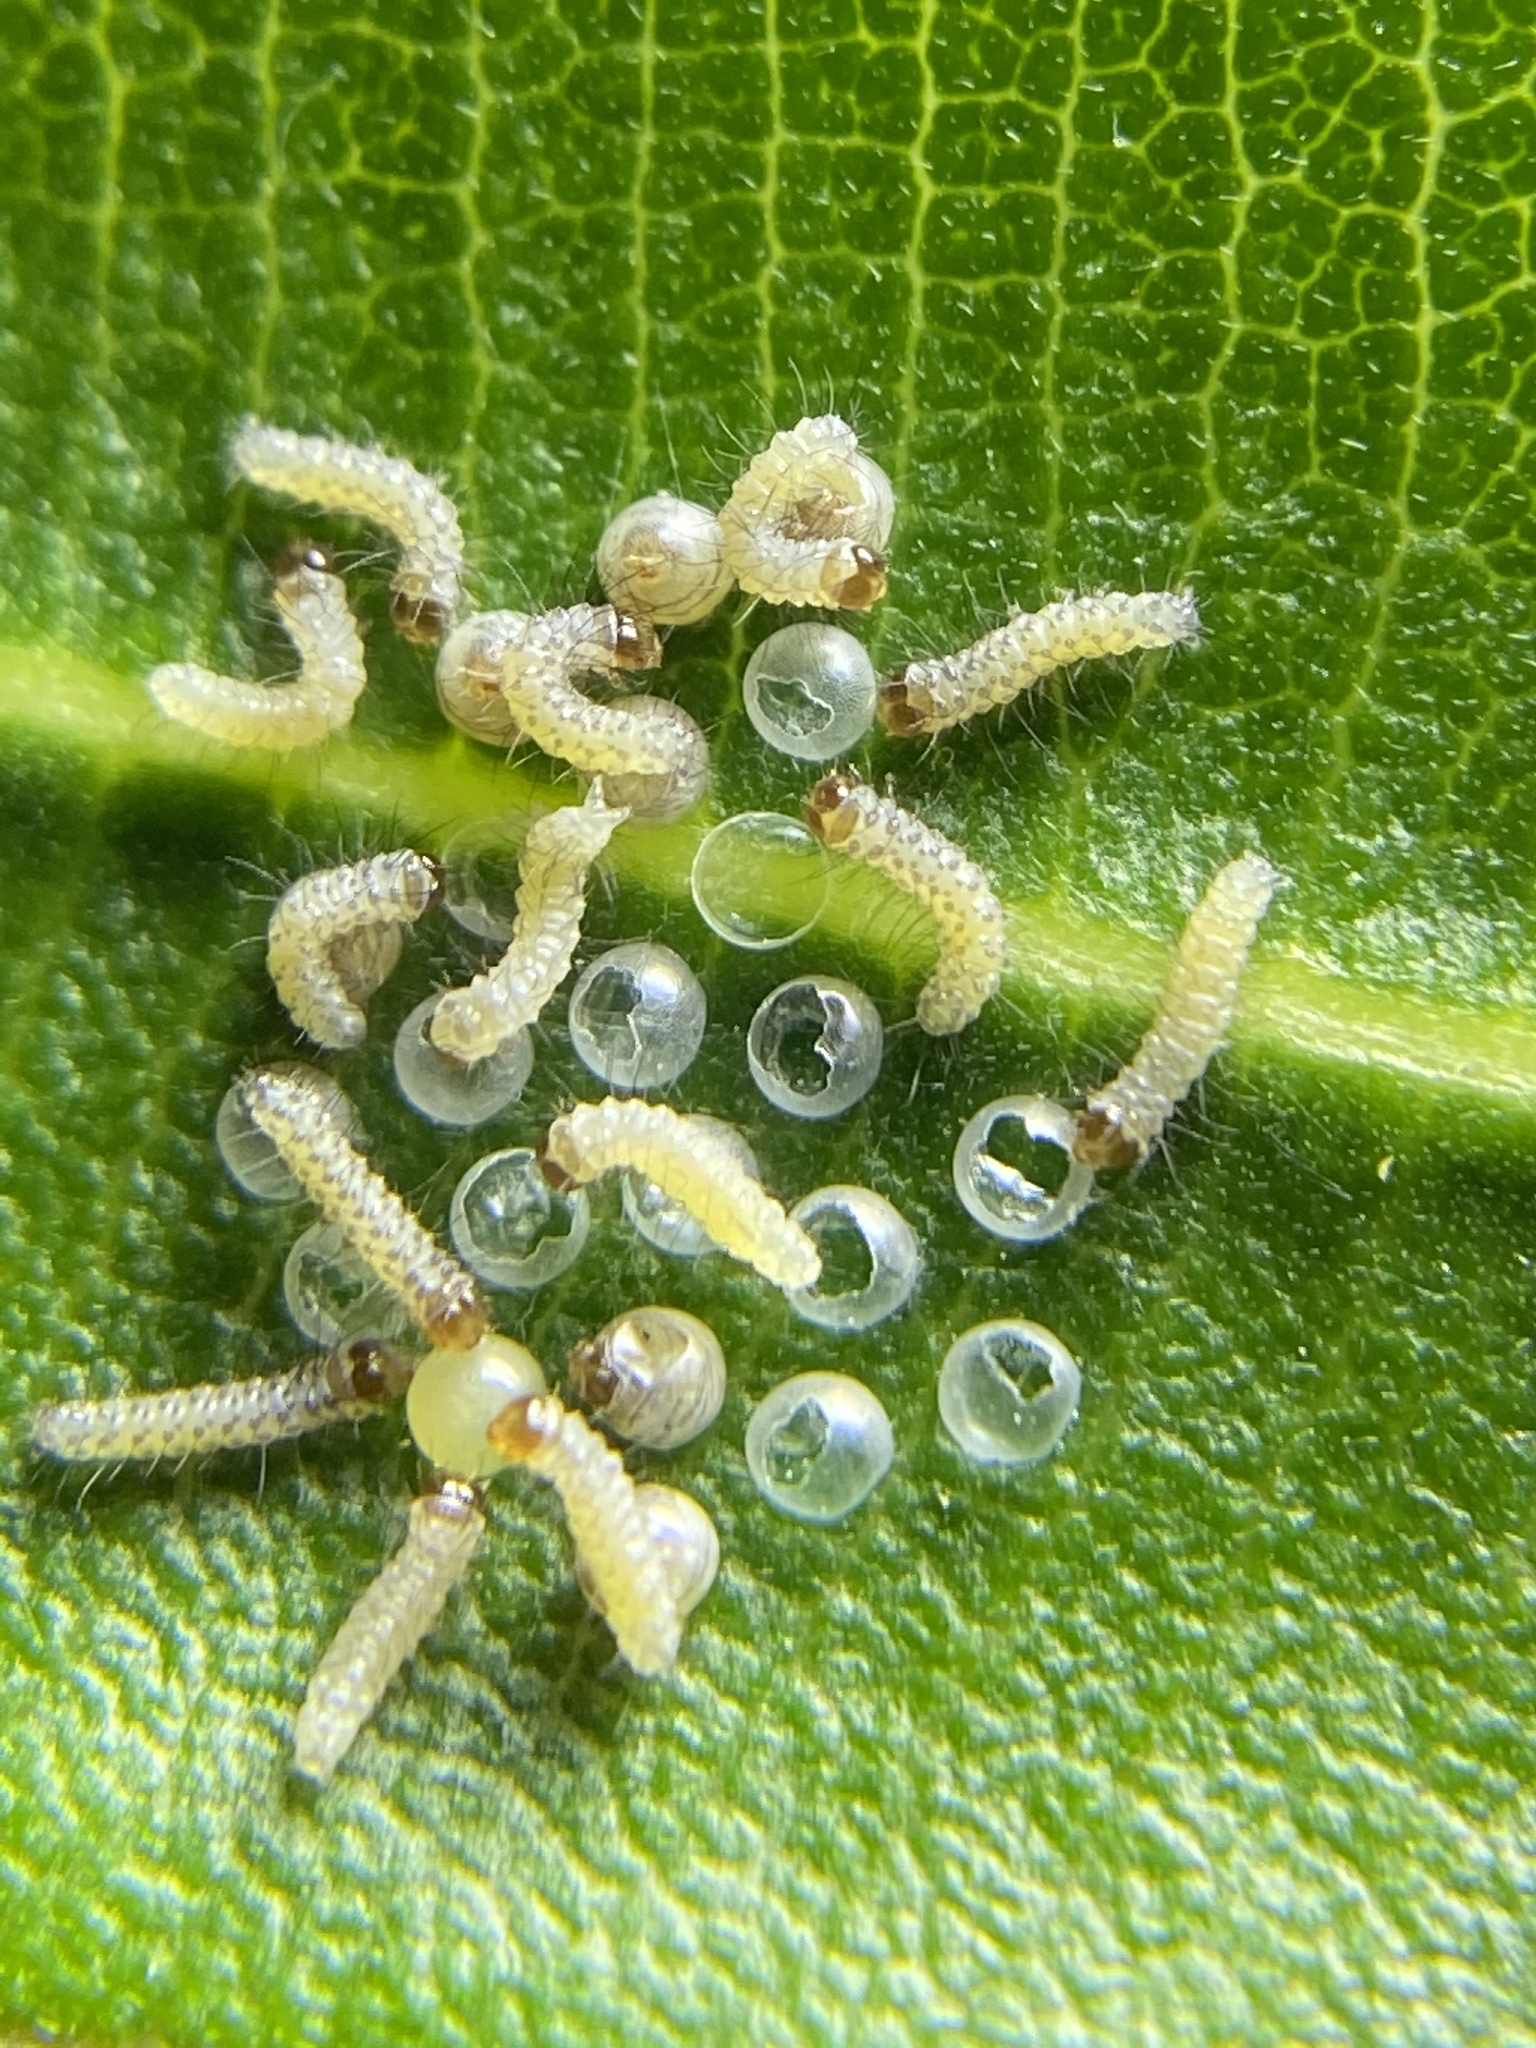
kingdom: Animalia
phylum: Arthropoda
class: Insecta
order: Lepidoptera
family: Erebidae
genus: Syntomeida
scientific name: Syntomeida epilais
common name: Polka-dot wasp moth
